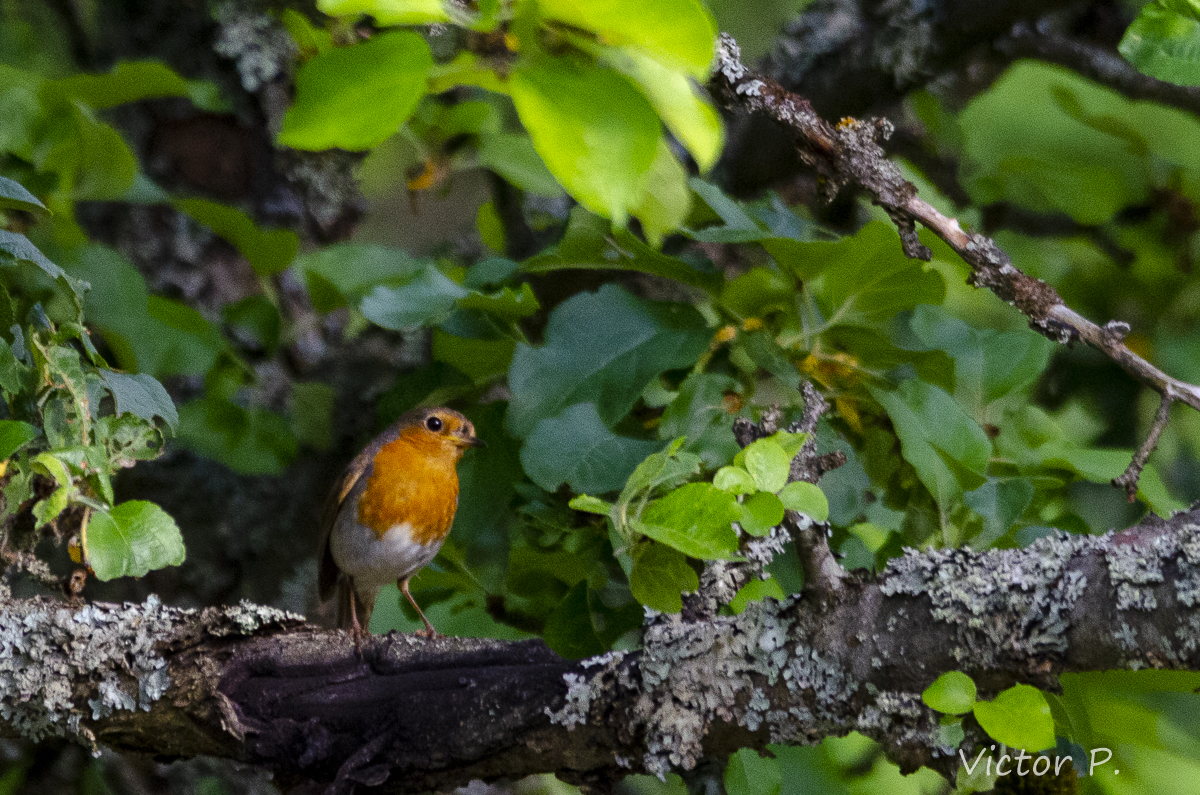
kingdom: Animalia
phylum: Chordata
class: Aves
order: Passeriformes
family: Muscicapidae
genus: Erithacus
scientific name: Erithacus rubecula
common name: European robin
